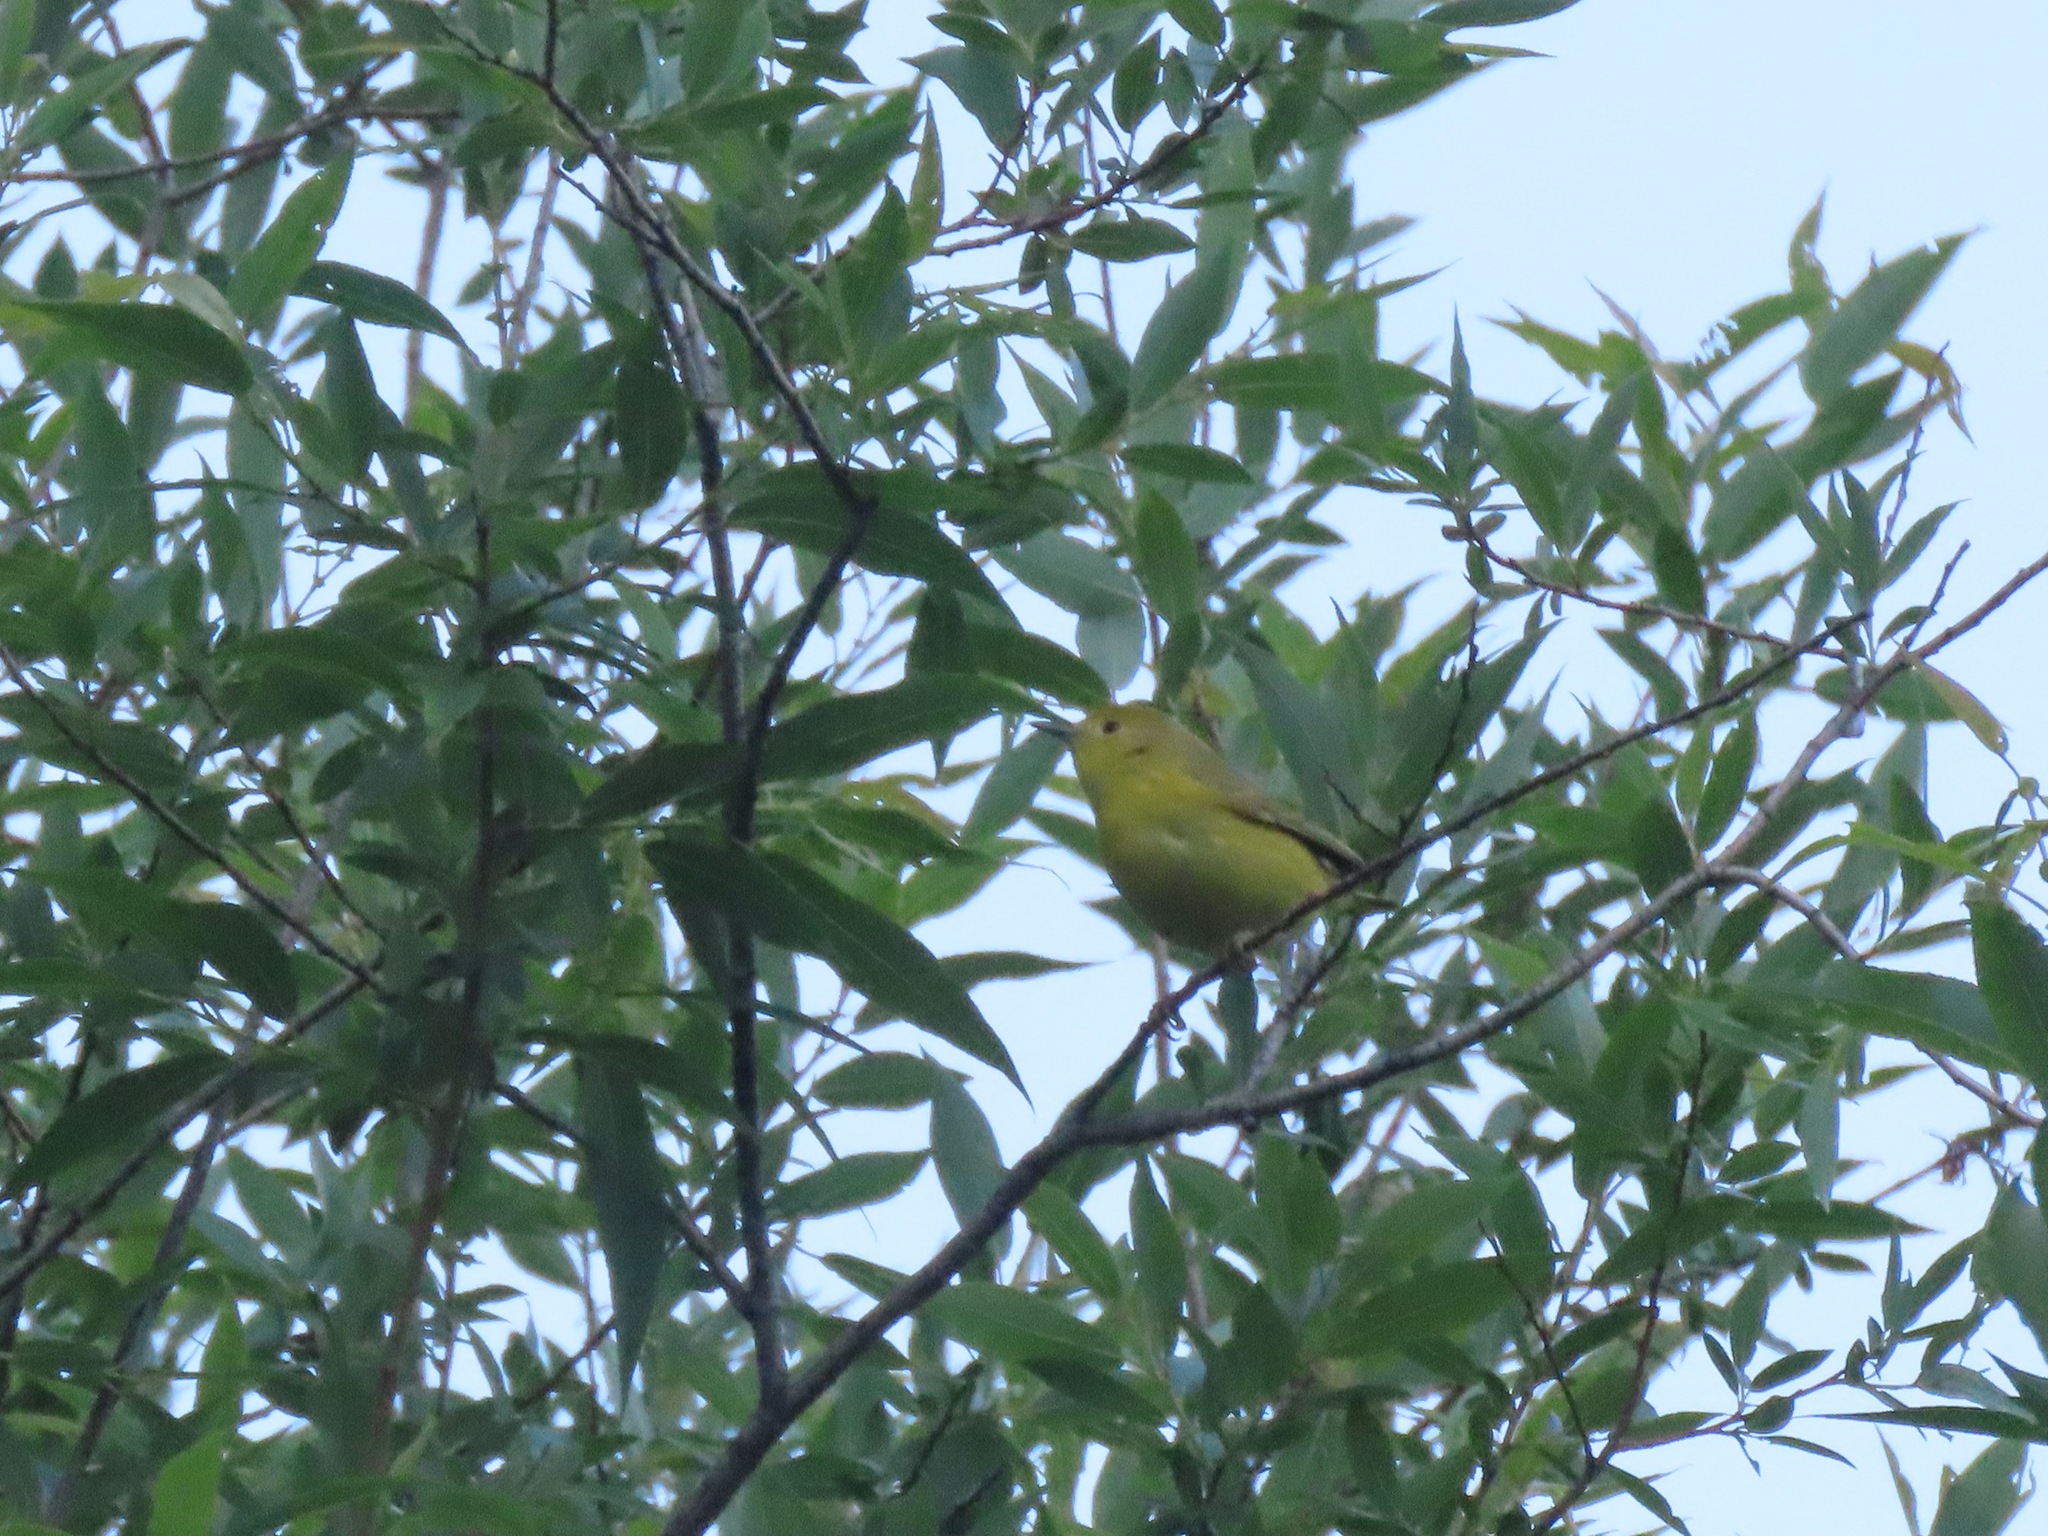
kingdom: Animalia
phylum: Chordata
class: Aves
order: Passeriformes
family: Parulidae
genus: Setophaga
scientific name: Setophaga petechia
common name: Yellow warbler
